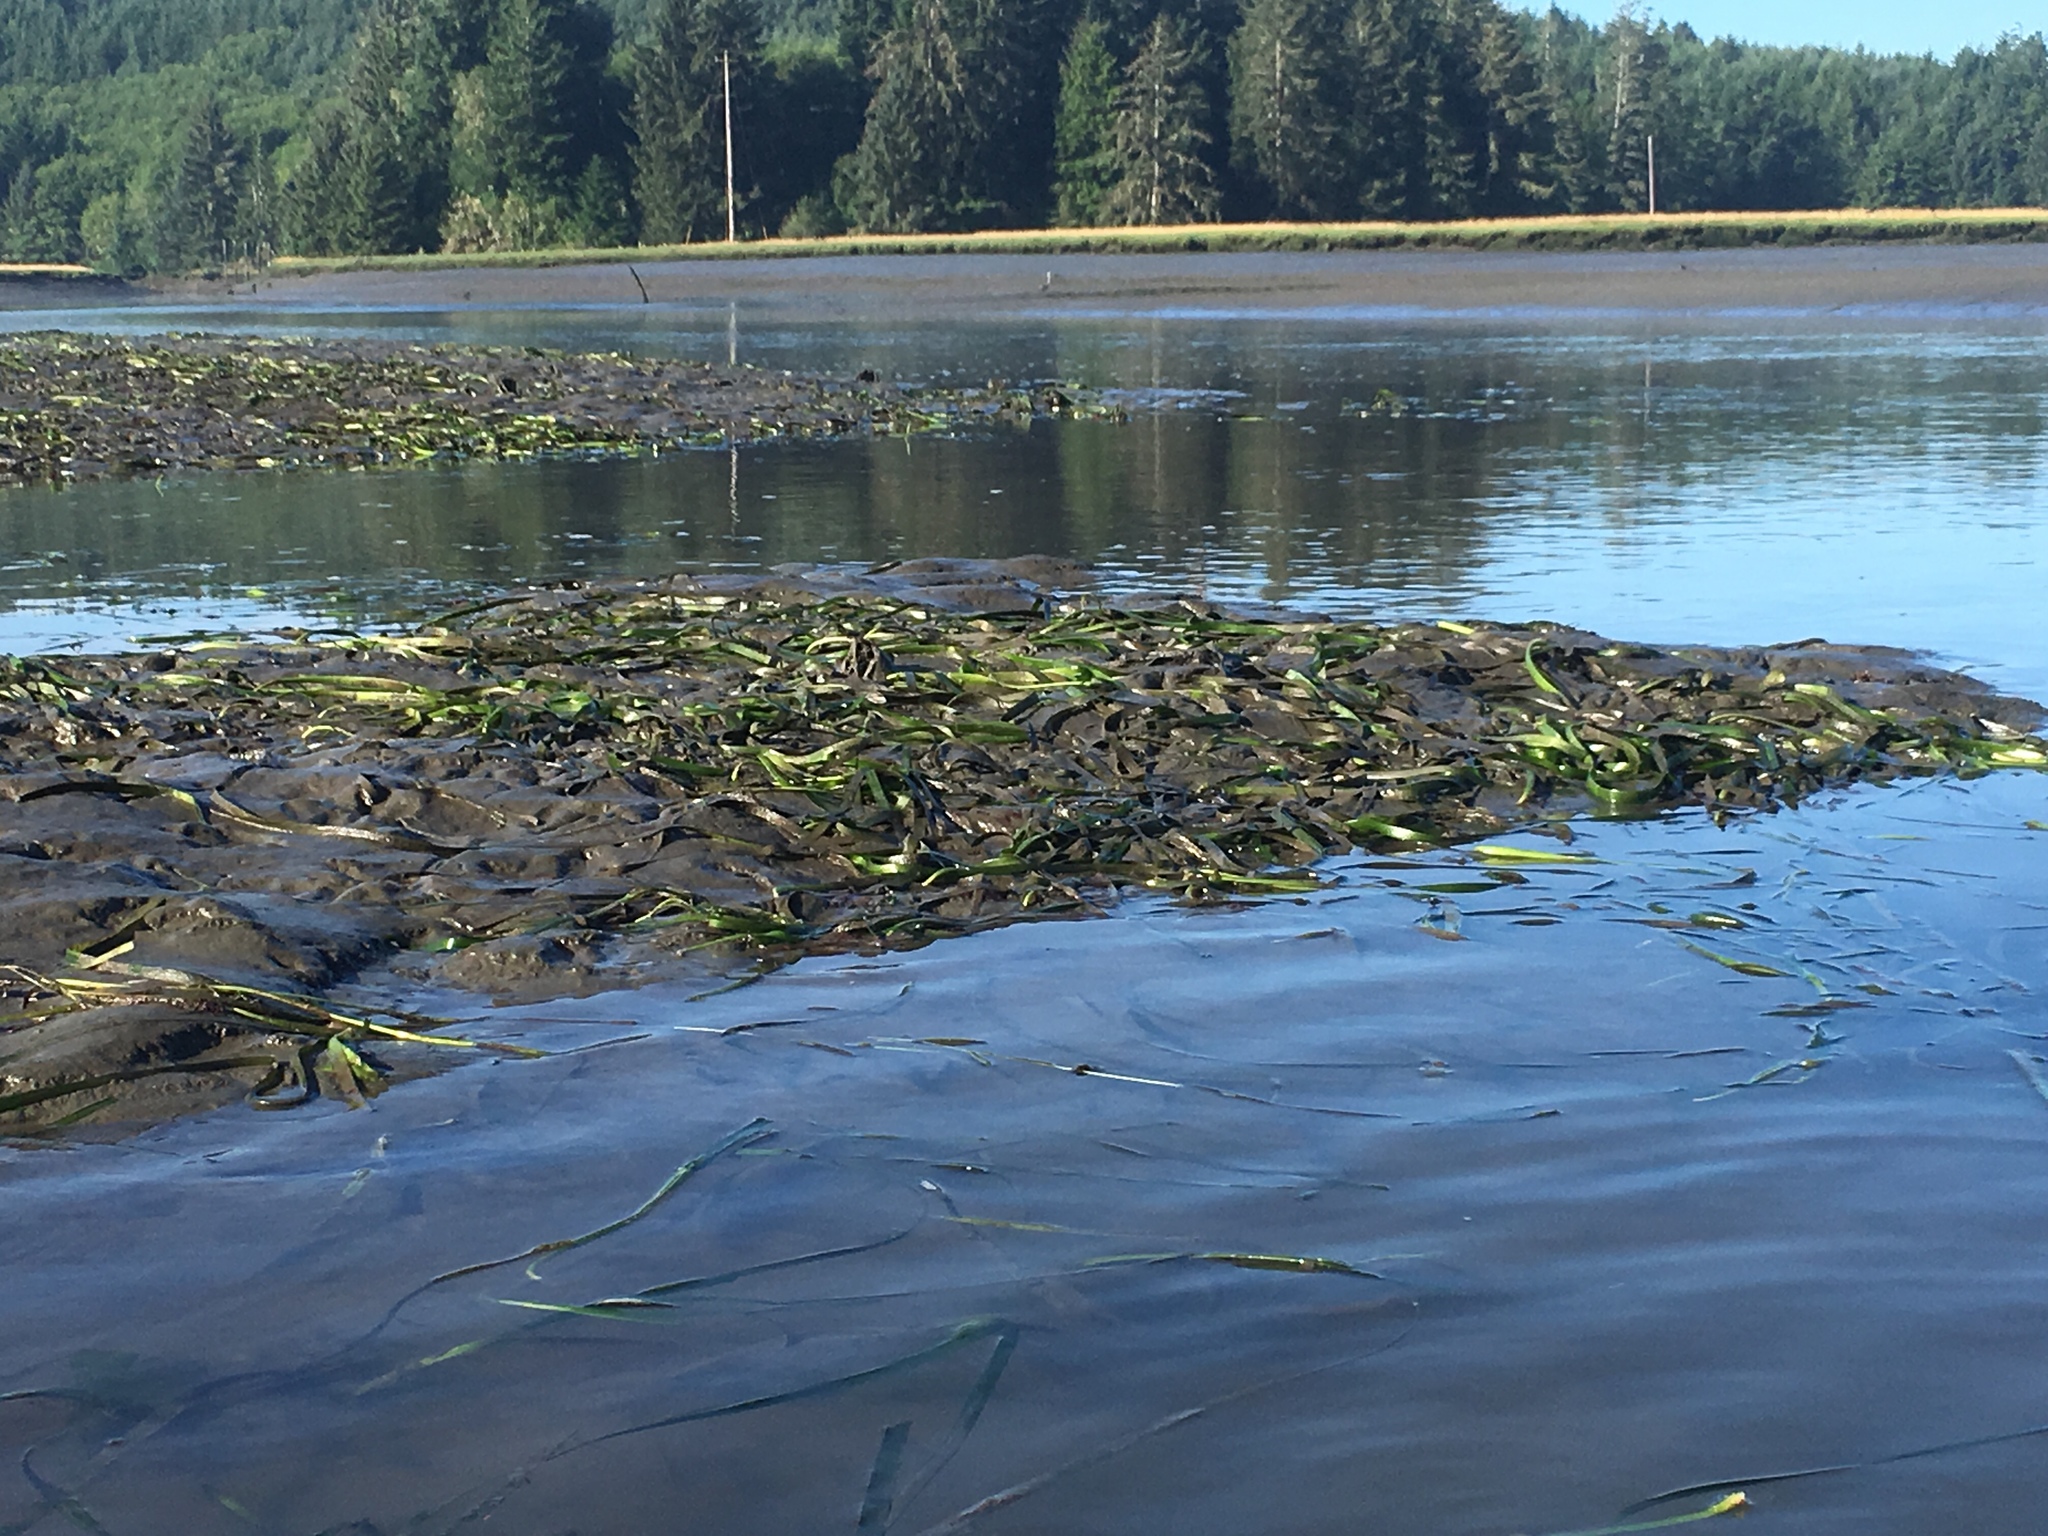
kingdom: Plantae
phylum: Tracheophyta
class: Liliopsida
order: Alismatales
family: Zosteraceae
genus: Zostera
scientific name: Zostera marina
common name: Eelgrass
